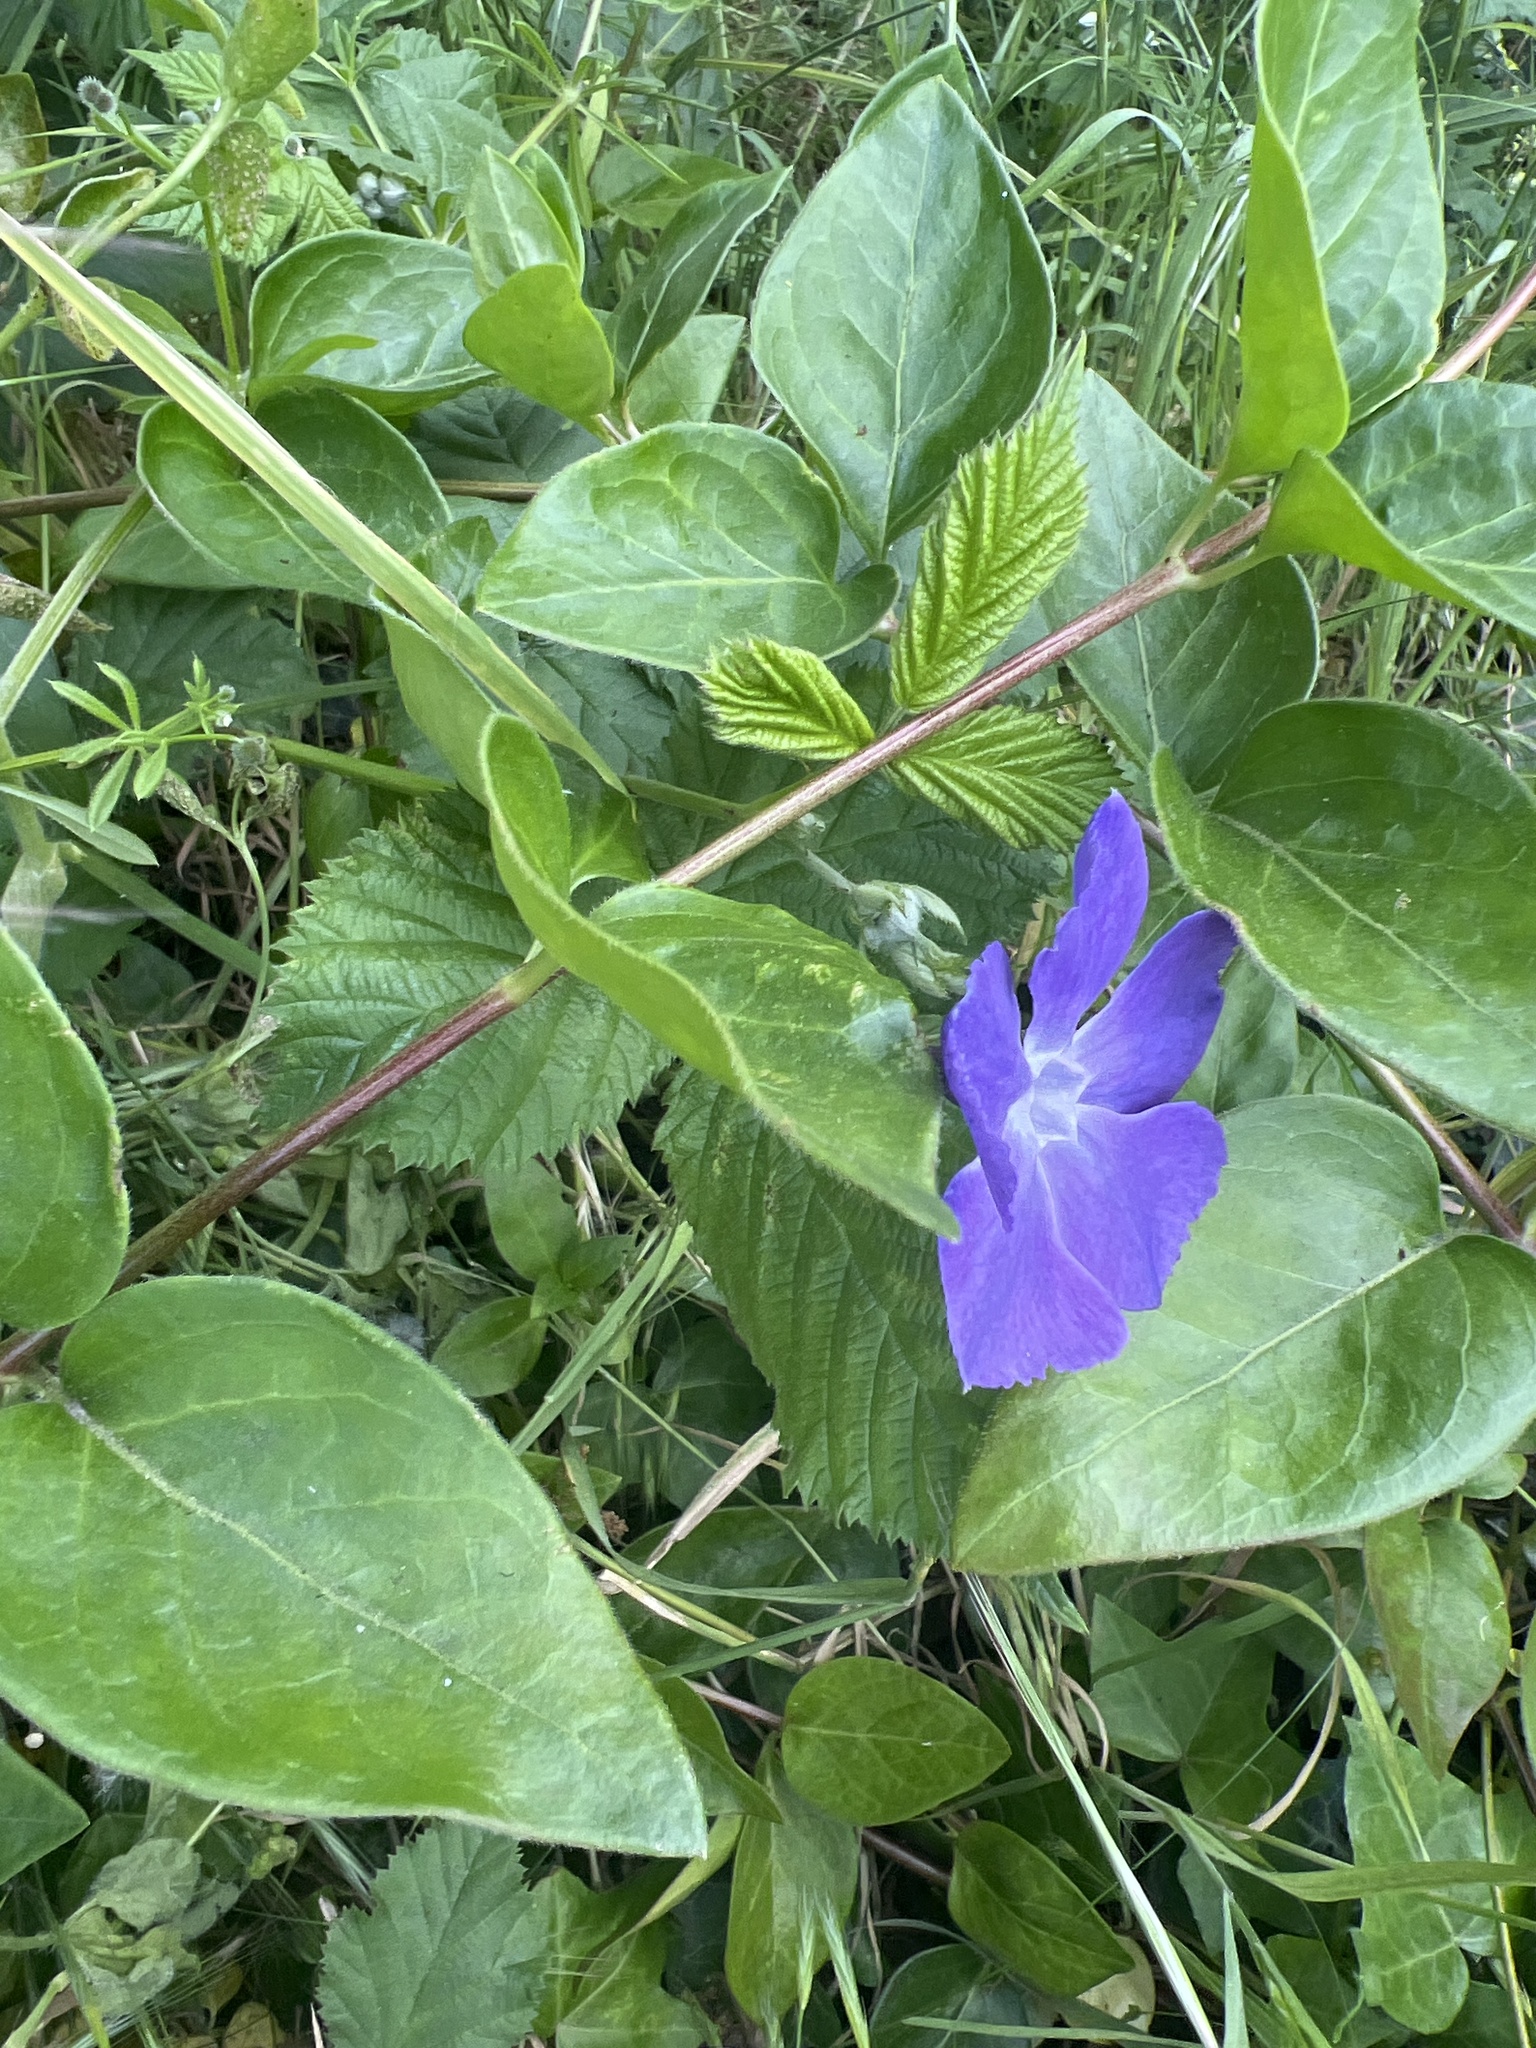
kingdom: Plantae
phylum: Tracheophyta
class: Magnoliopsida
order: Gentianales
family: Apocynaceae
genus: Vinca
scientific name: Vinca major
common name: Greater periwinkle
